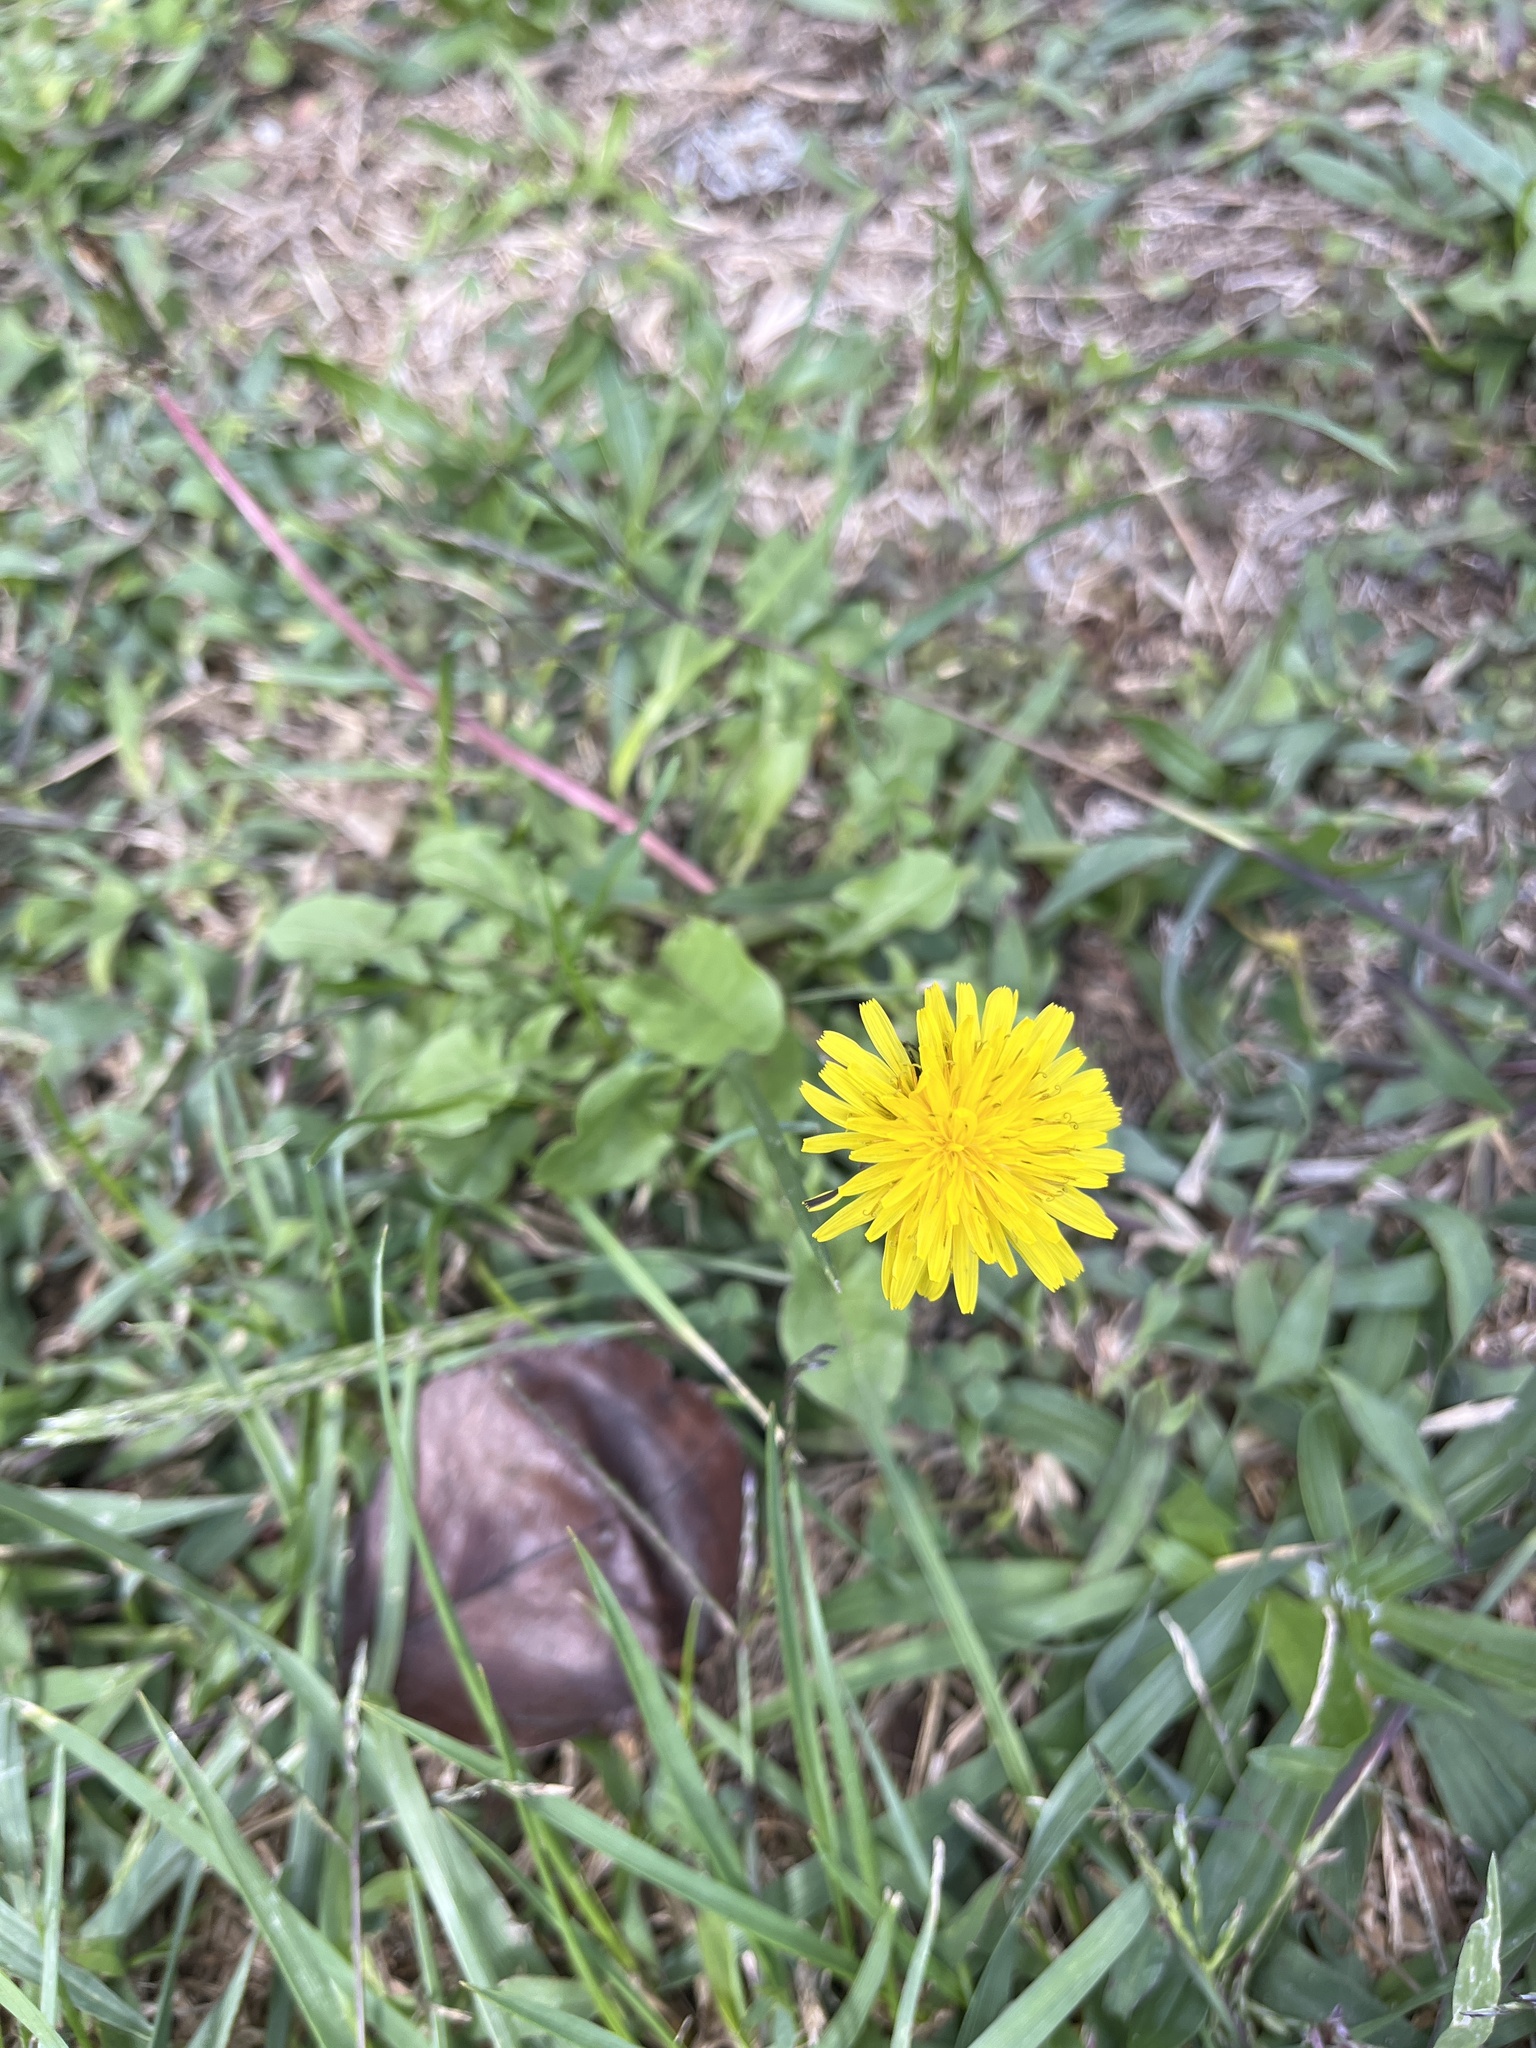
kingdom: Plantae
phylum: Tracheophyta
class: Magnoliopsida
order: Asterales
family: Asteraceae
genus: Taraxacum
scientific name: Taraxacum officinale
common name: Common dandelion
